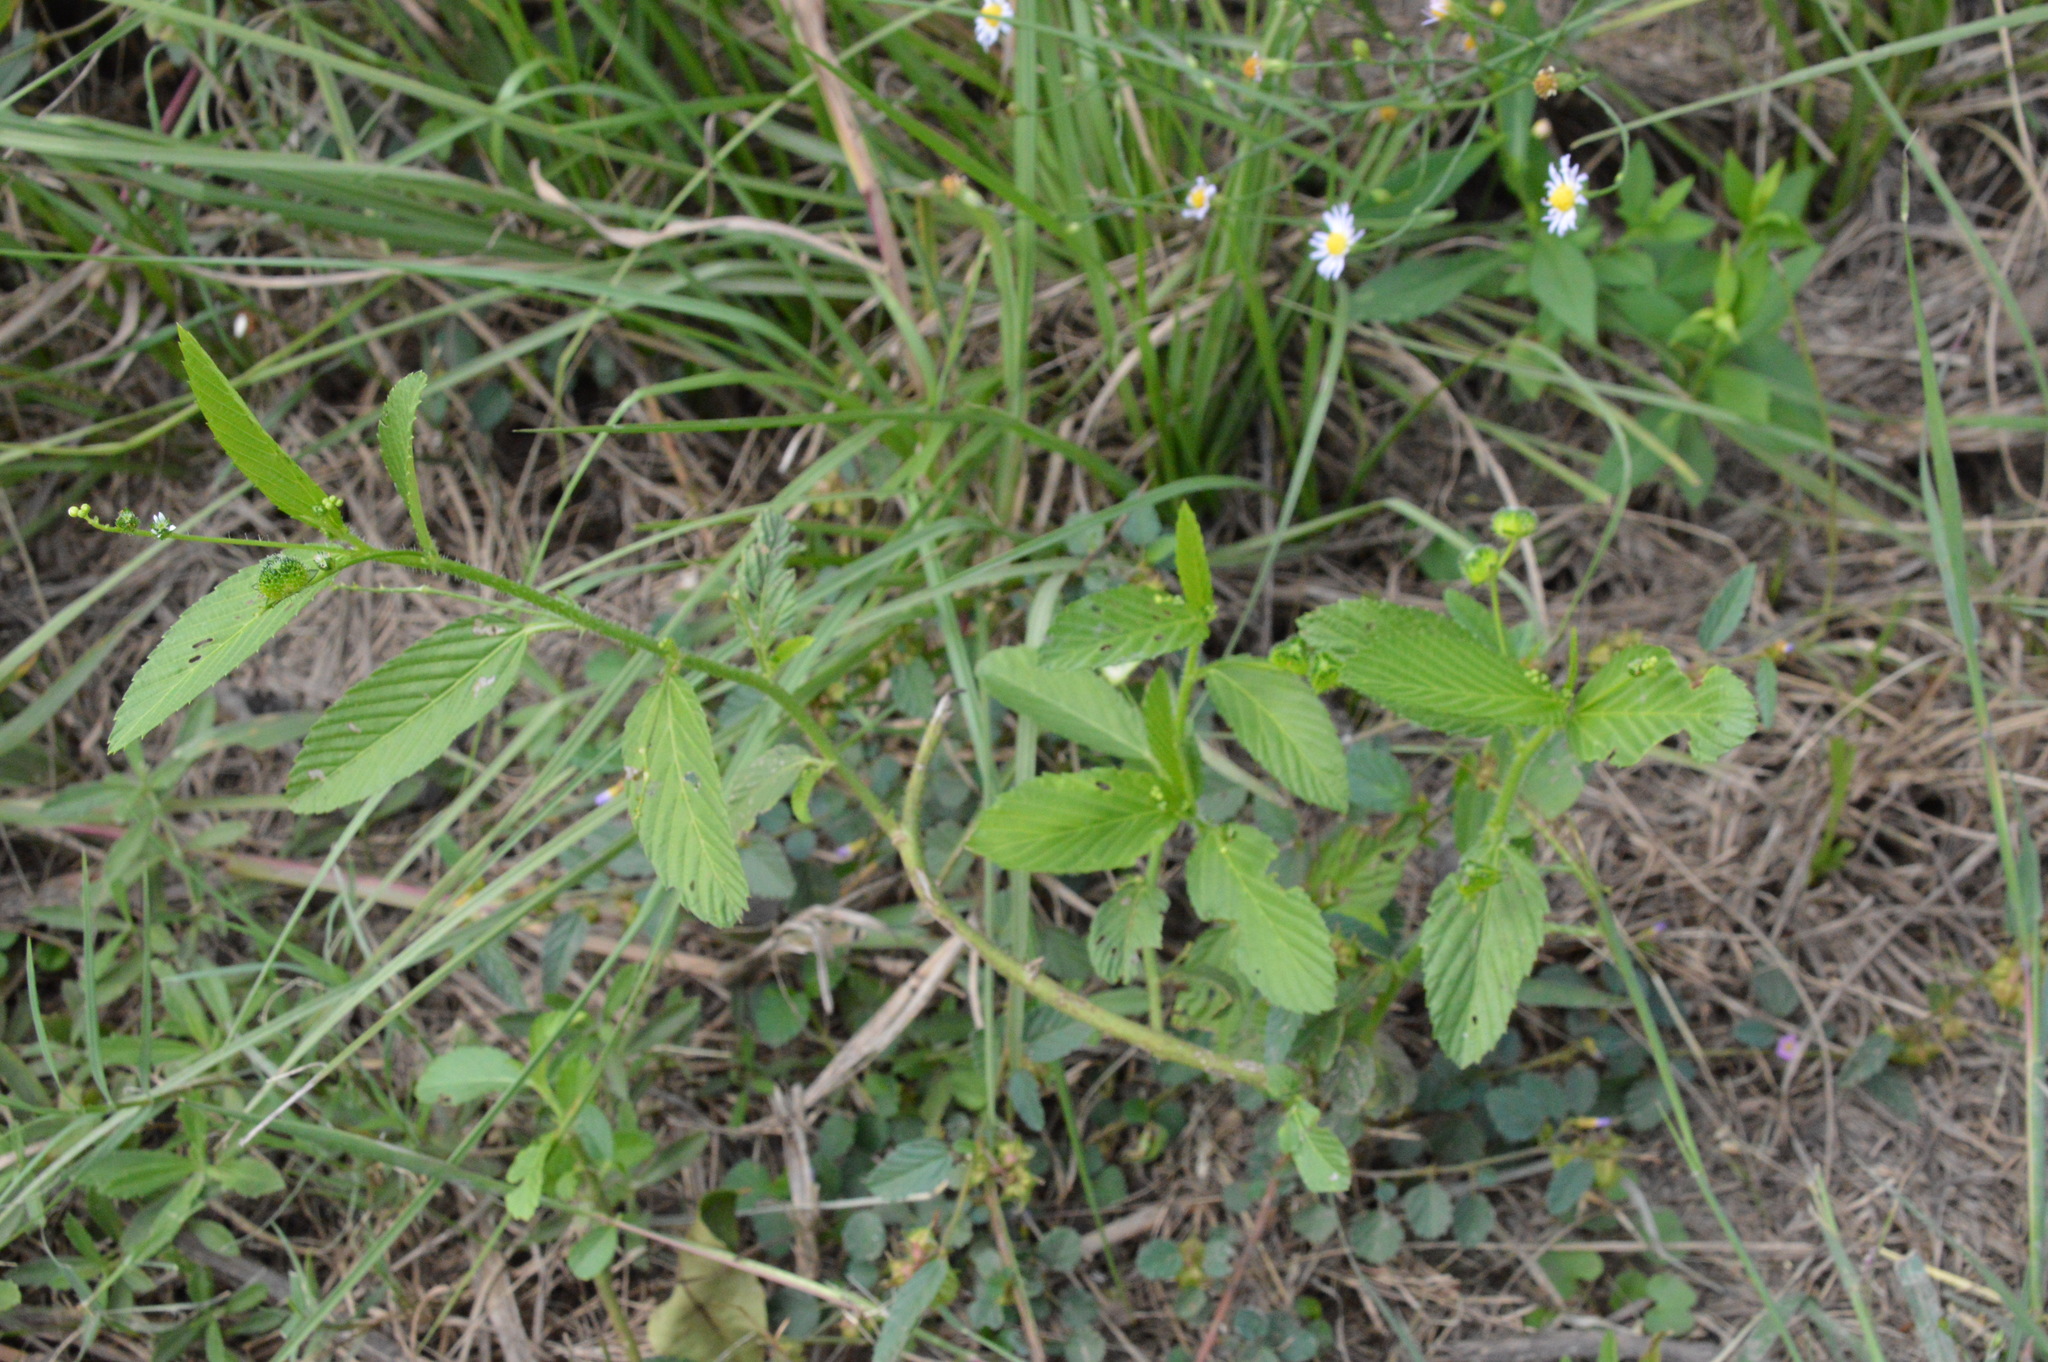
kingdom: Plantae
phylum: Tracheophyta
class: Magnoliopsida
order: Malpighiales
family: Euphorbiaceae
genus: Caperonia
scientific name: Caperonia palustris
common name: Sacatrapo
